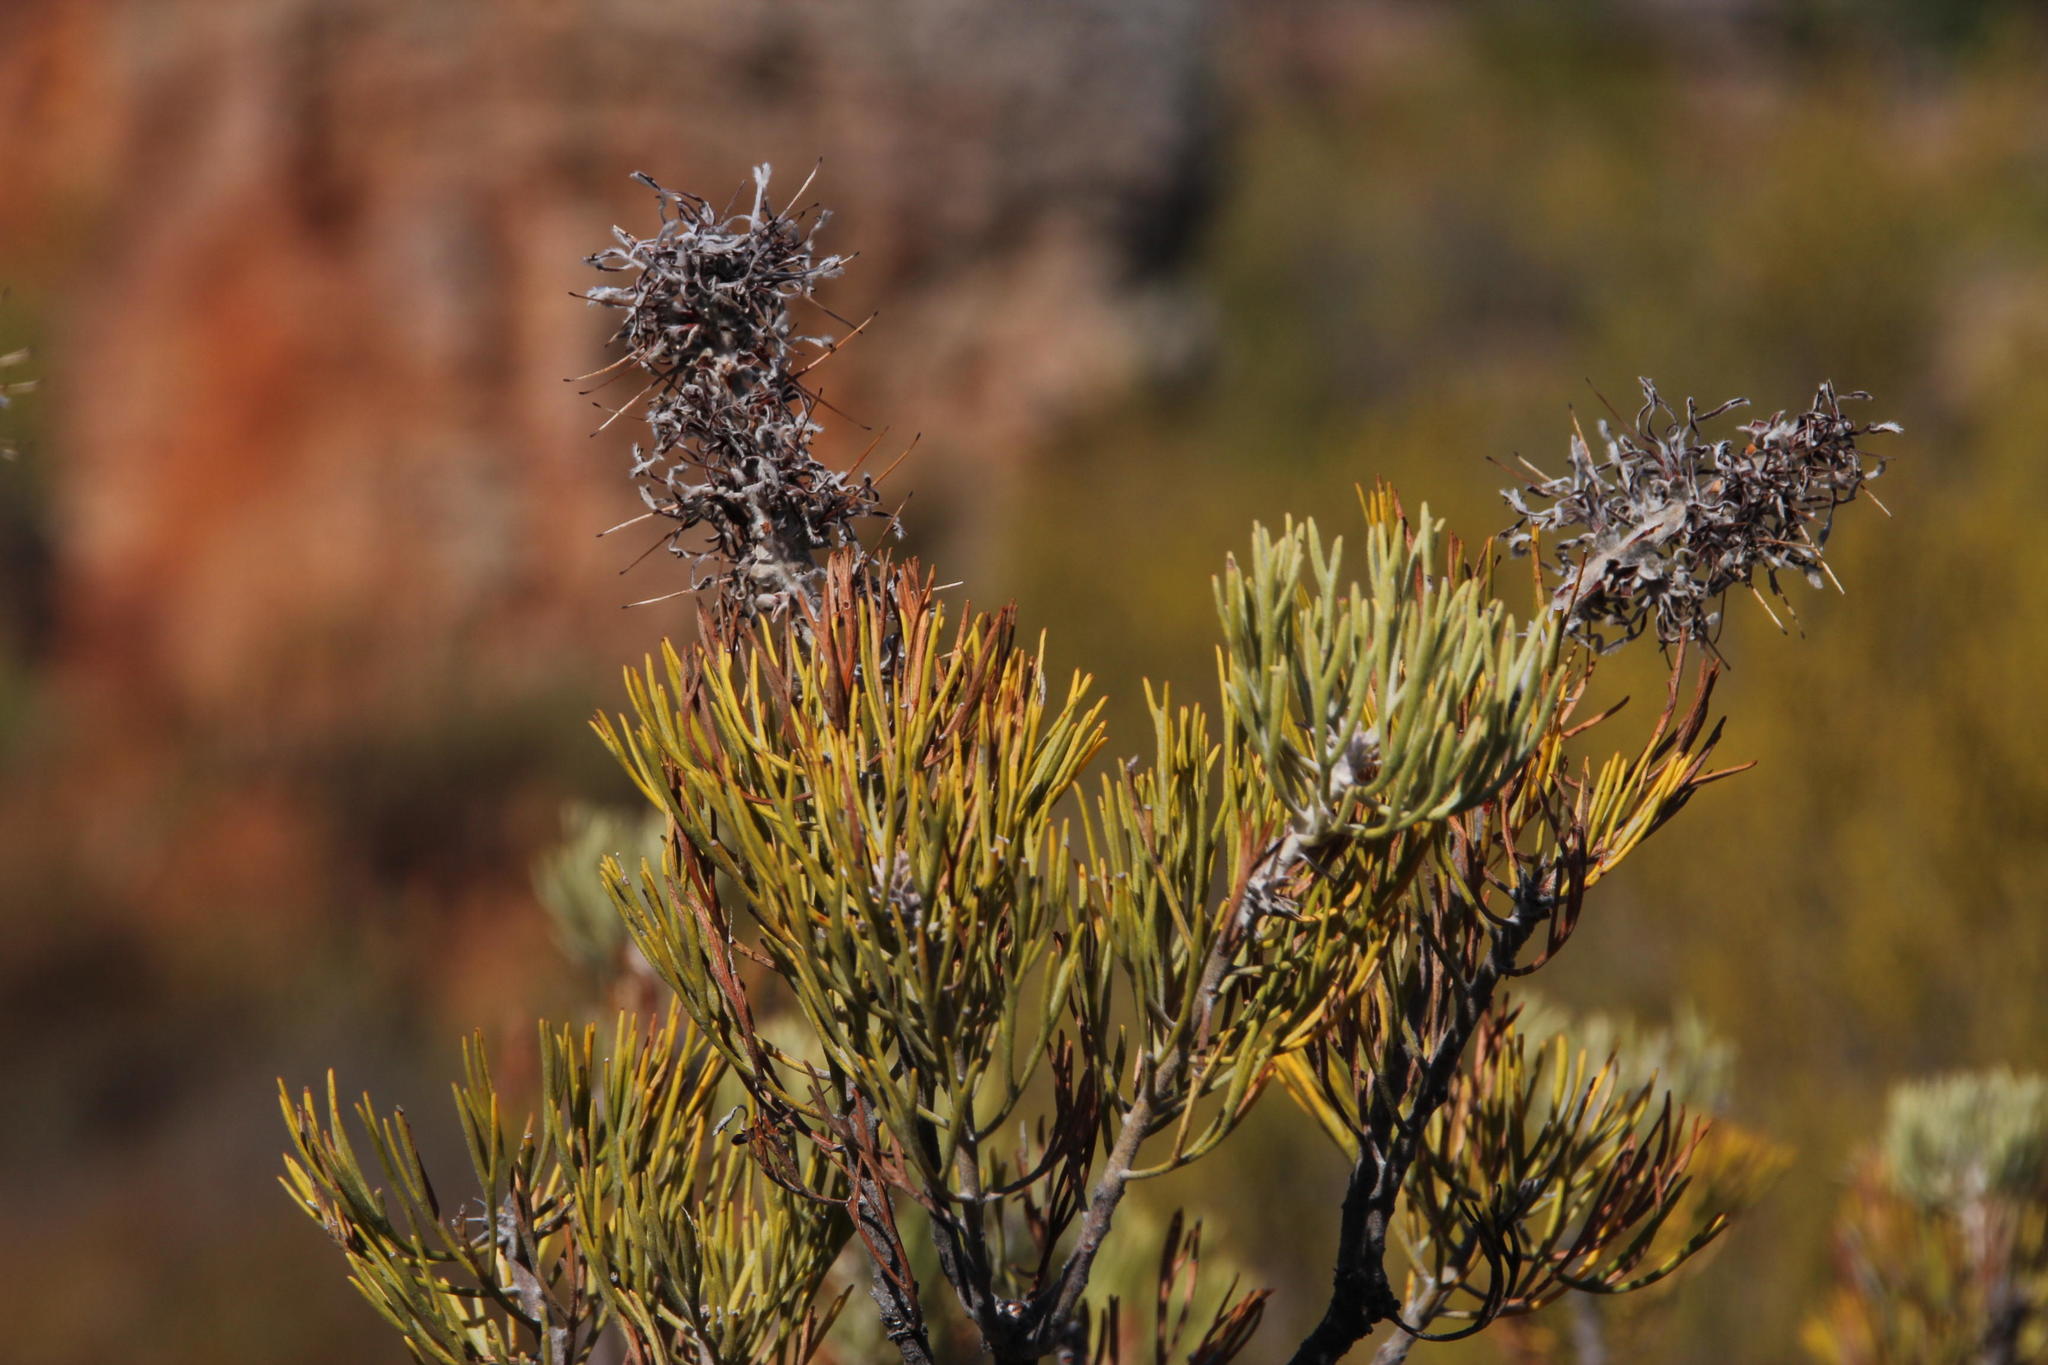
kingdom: Plantae
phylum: Tracheophyta
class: Magnoliopsida
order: Proteales
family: Proteaceae
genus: Paranomus
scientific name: Paranomus bracteolaris
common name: Bokkeveld tree sceptre
